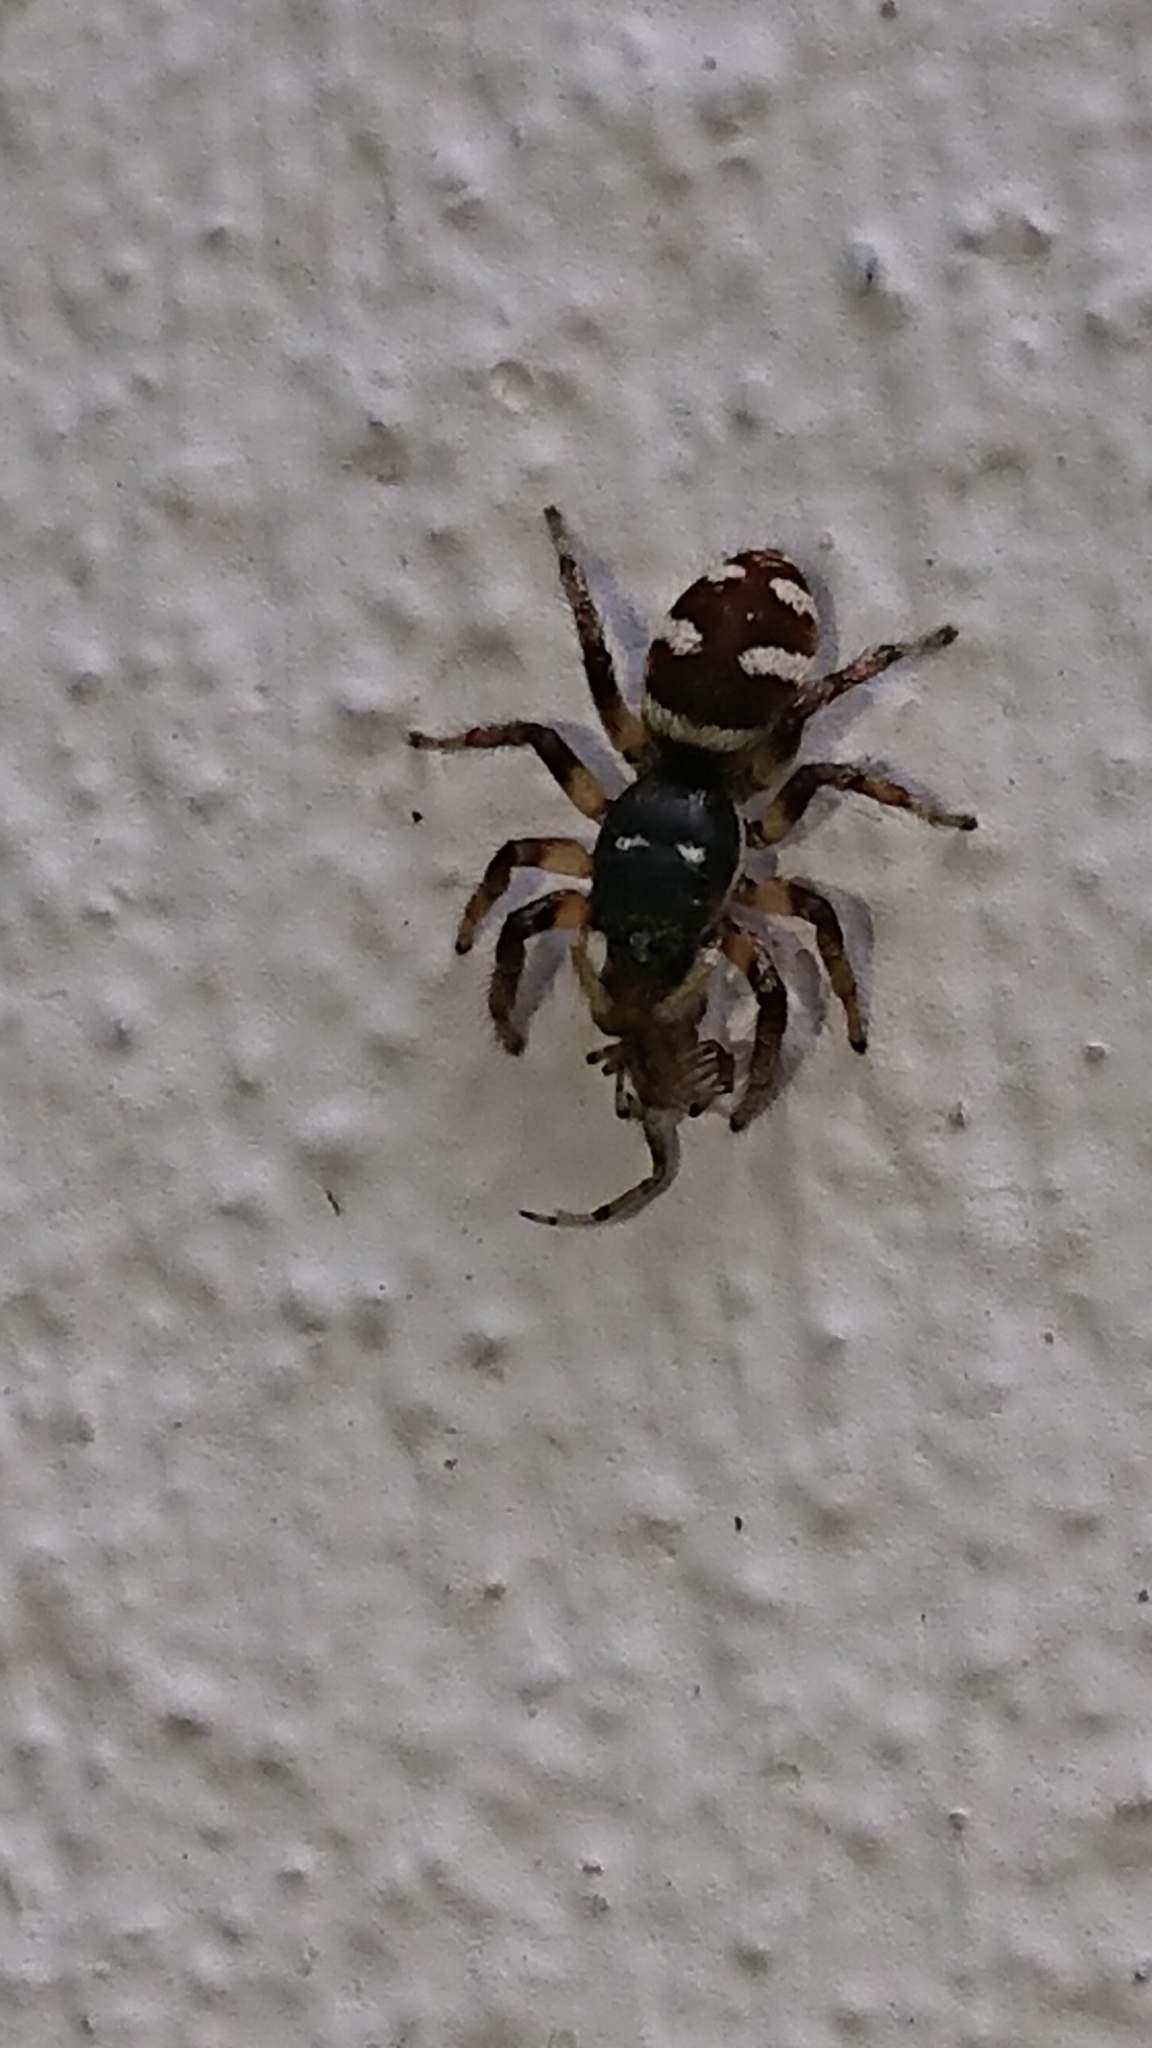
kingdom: Animalia
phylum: Arthropoda
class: Arachnida
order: Araneae
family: Salticidae
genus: Salticus
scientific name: Salticus scenicus
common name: Zebra jumper
